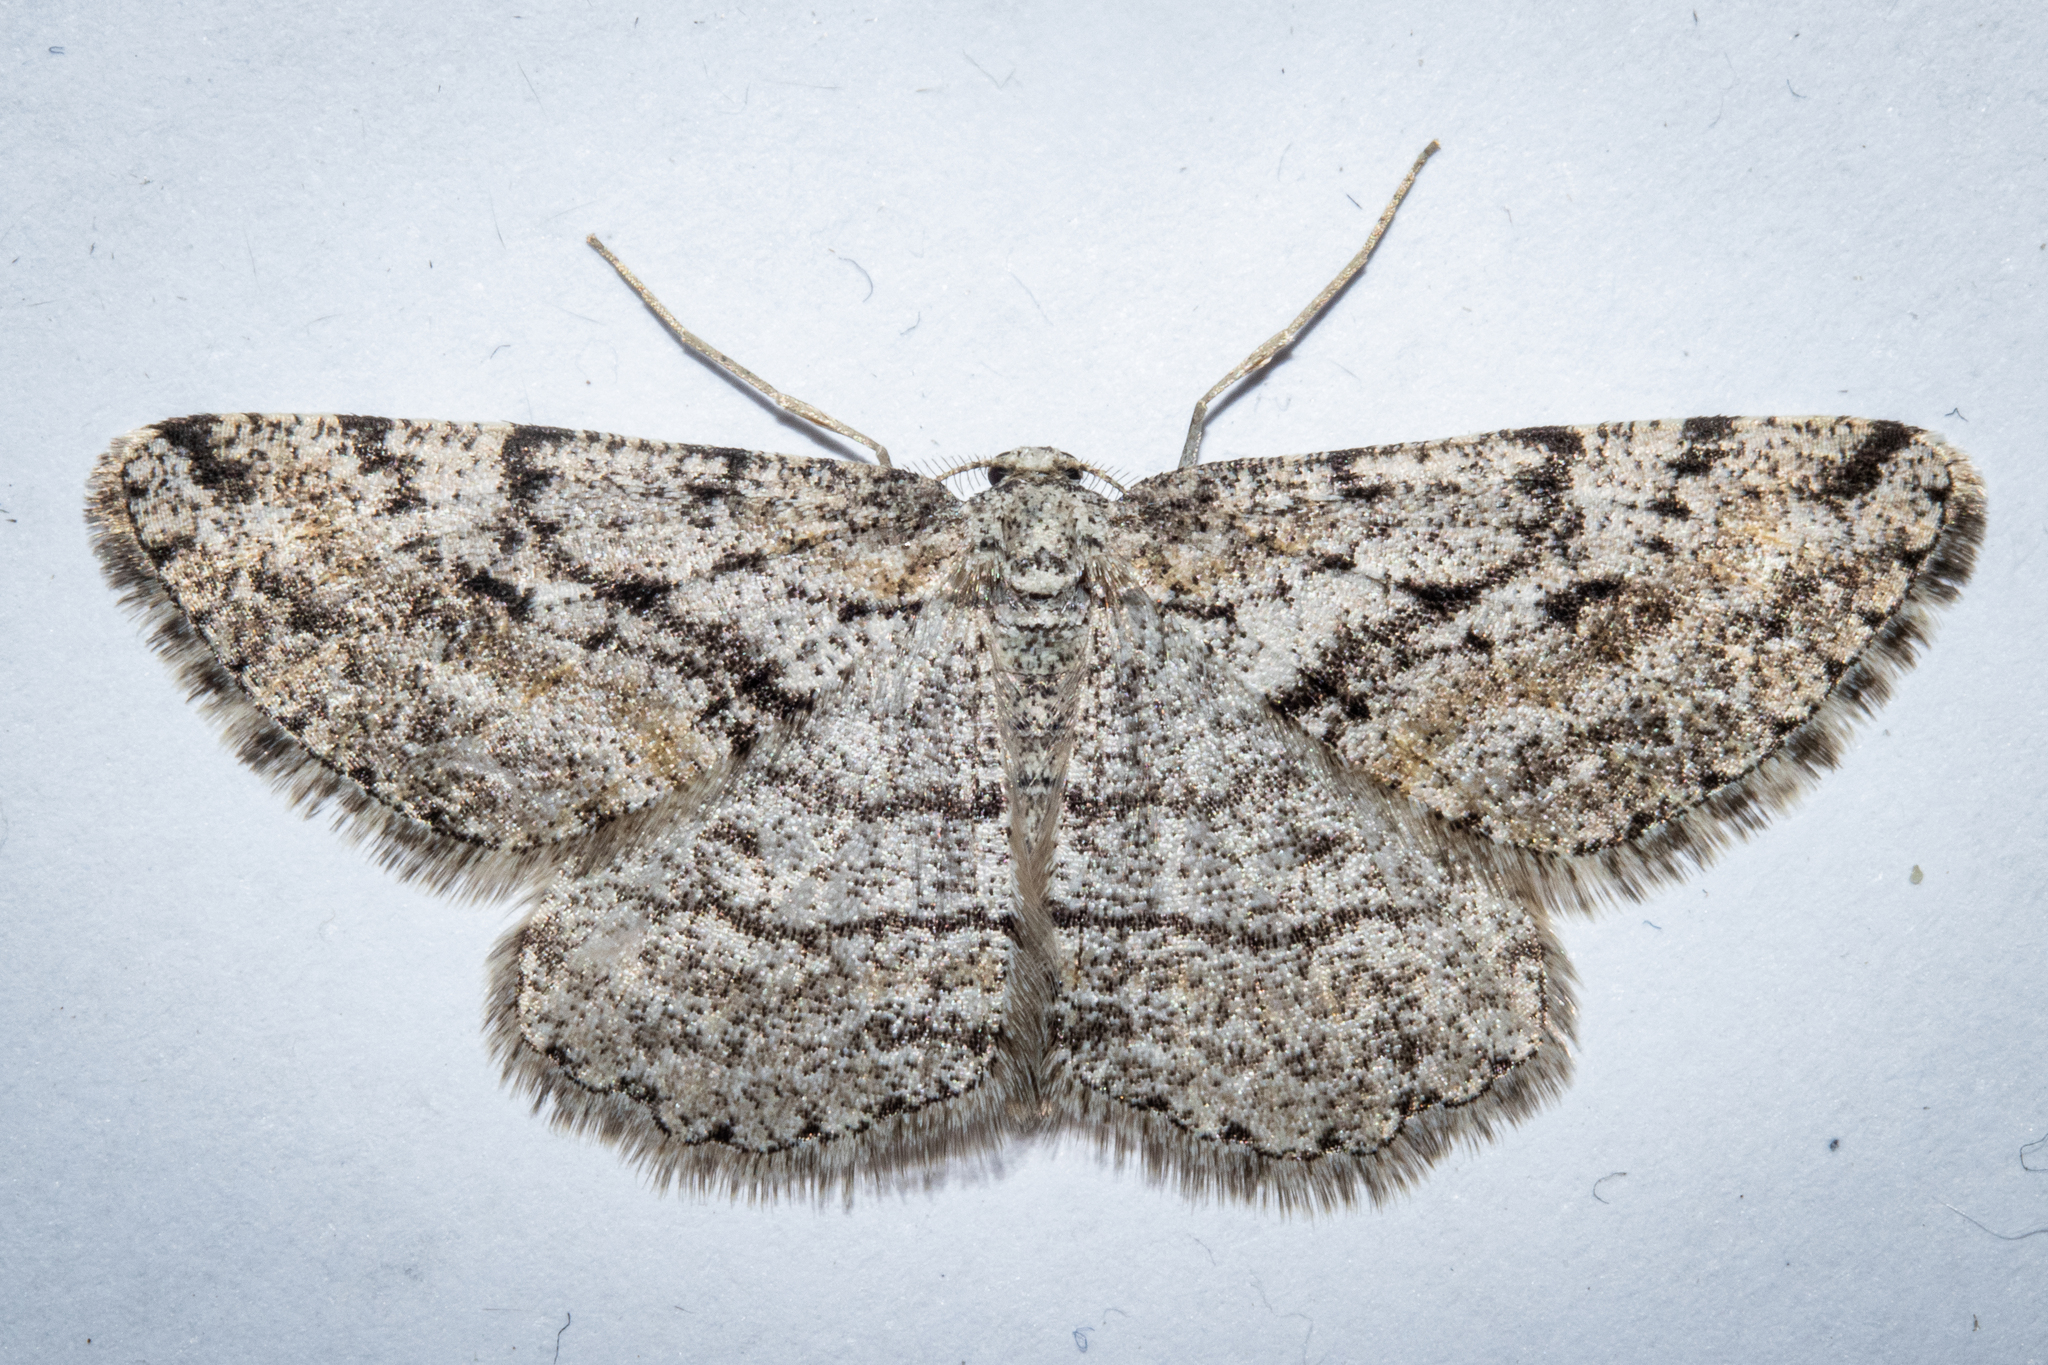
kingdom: Animalia
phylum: Arthropoda
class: Insecta
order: Lepidoptera
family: Geometridae
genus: Zermizinga
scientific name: Zermizinga indocilisaria
